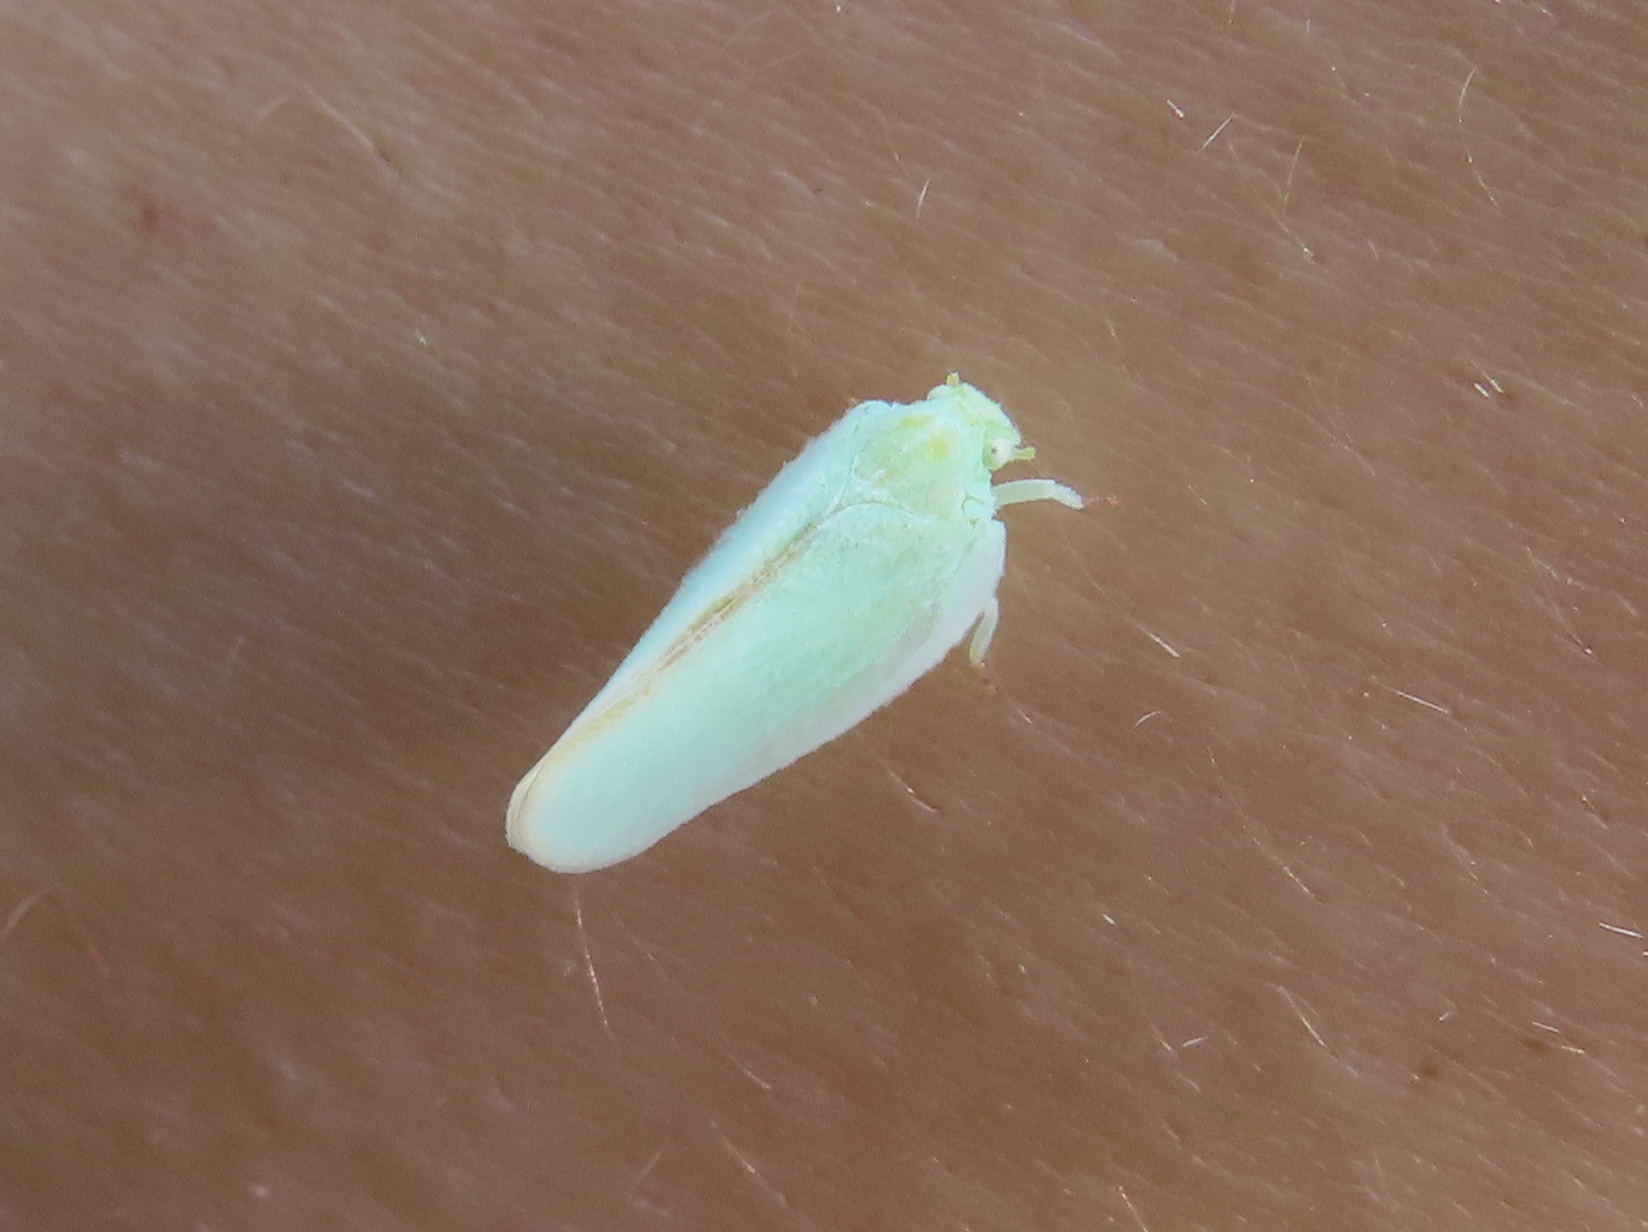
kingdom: Animalia
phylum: Arthropoda
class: Insecta
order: Hemiptera
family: Flatidae
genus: Ormenoides
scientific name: Ormenoides venusta
